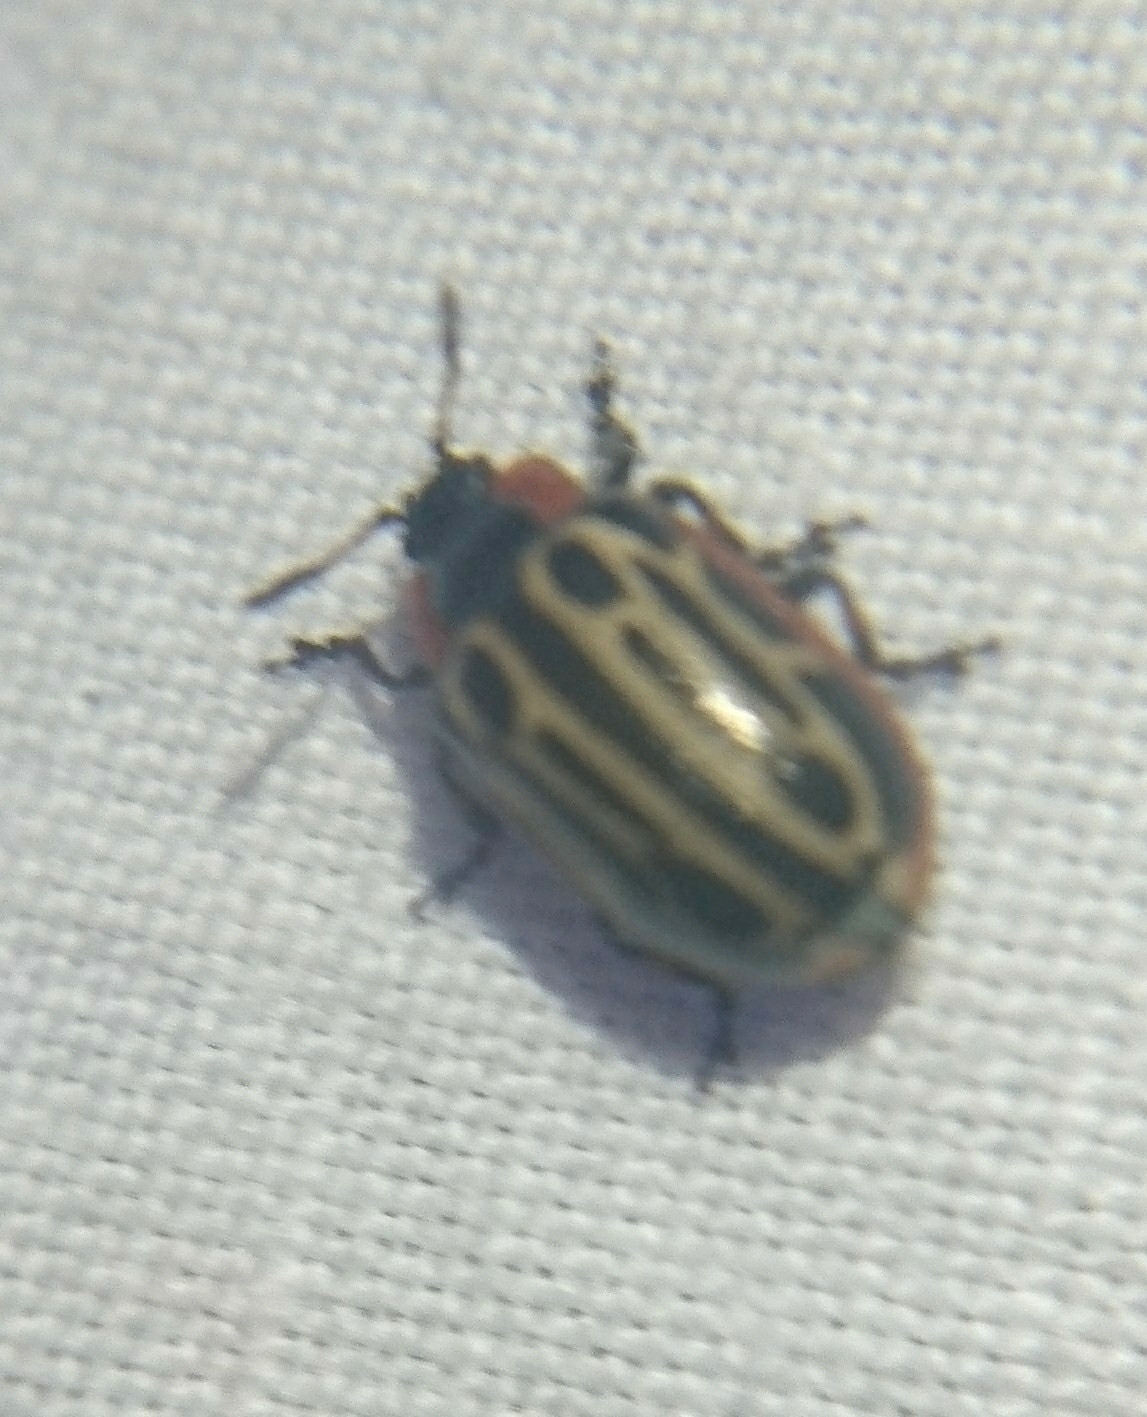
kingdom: Animalia
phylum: Arthropoda
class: Insecta
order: Coleoptera
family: Chrysomelidae
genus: Aethiopocassis
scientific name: Aethiopocassis scripta
